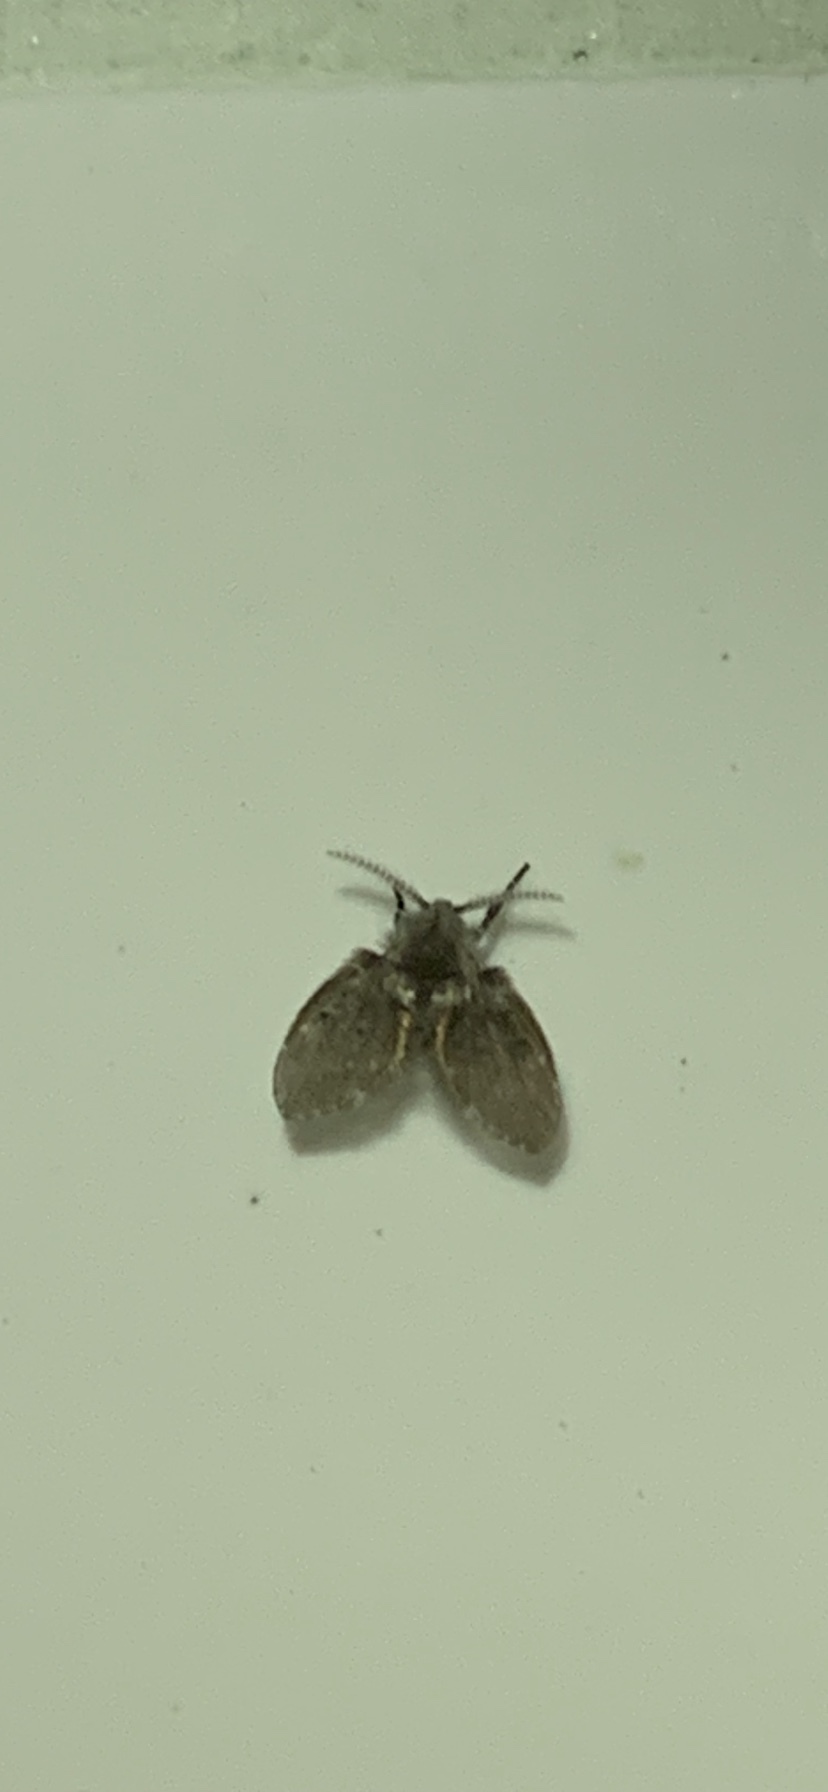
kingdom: Animalia
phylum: Arthropoda
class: Insecta
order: Diptera
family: Psychodidae
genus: Clogmia
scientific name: Clogmia albipunctatus
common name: White-spotted moth fly
